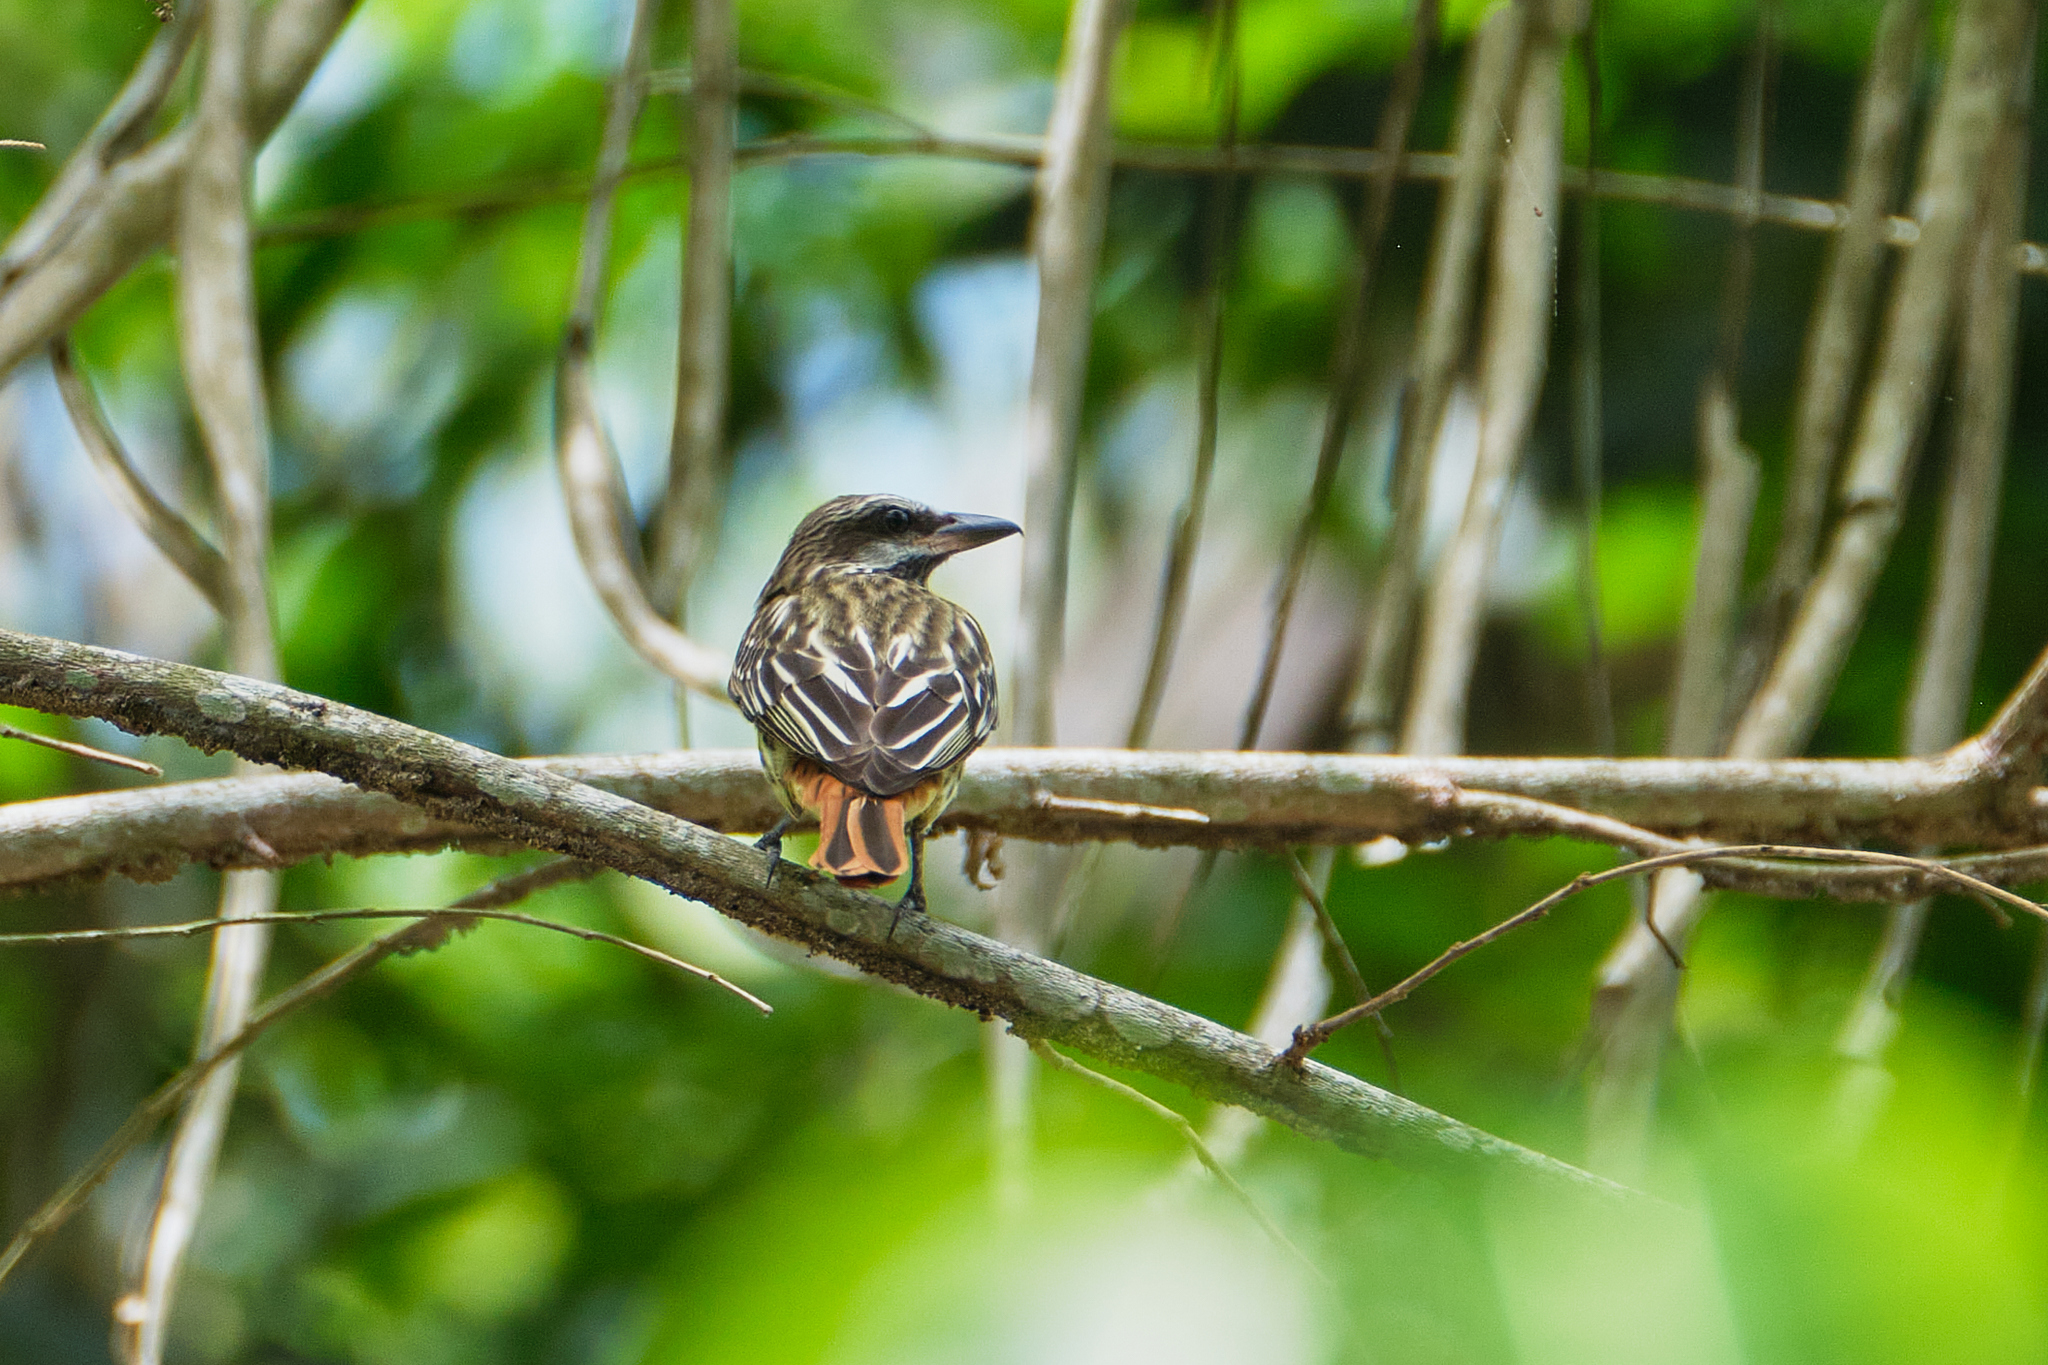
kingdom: Animalia
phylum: Chordata
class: Aves
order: Passeriformes
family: Tyrannidae
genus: Myiodynastes
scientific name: Myiodynastes luteiventris
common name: Sulphur-bellied flycatcher
